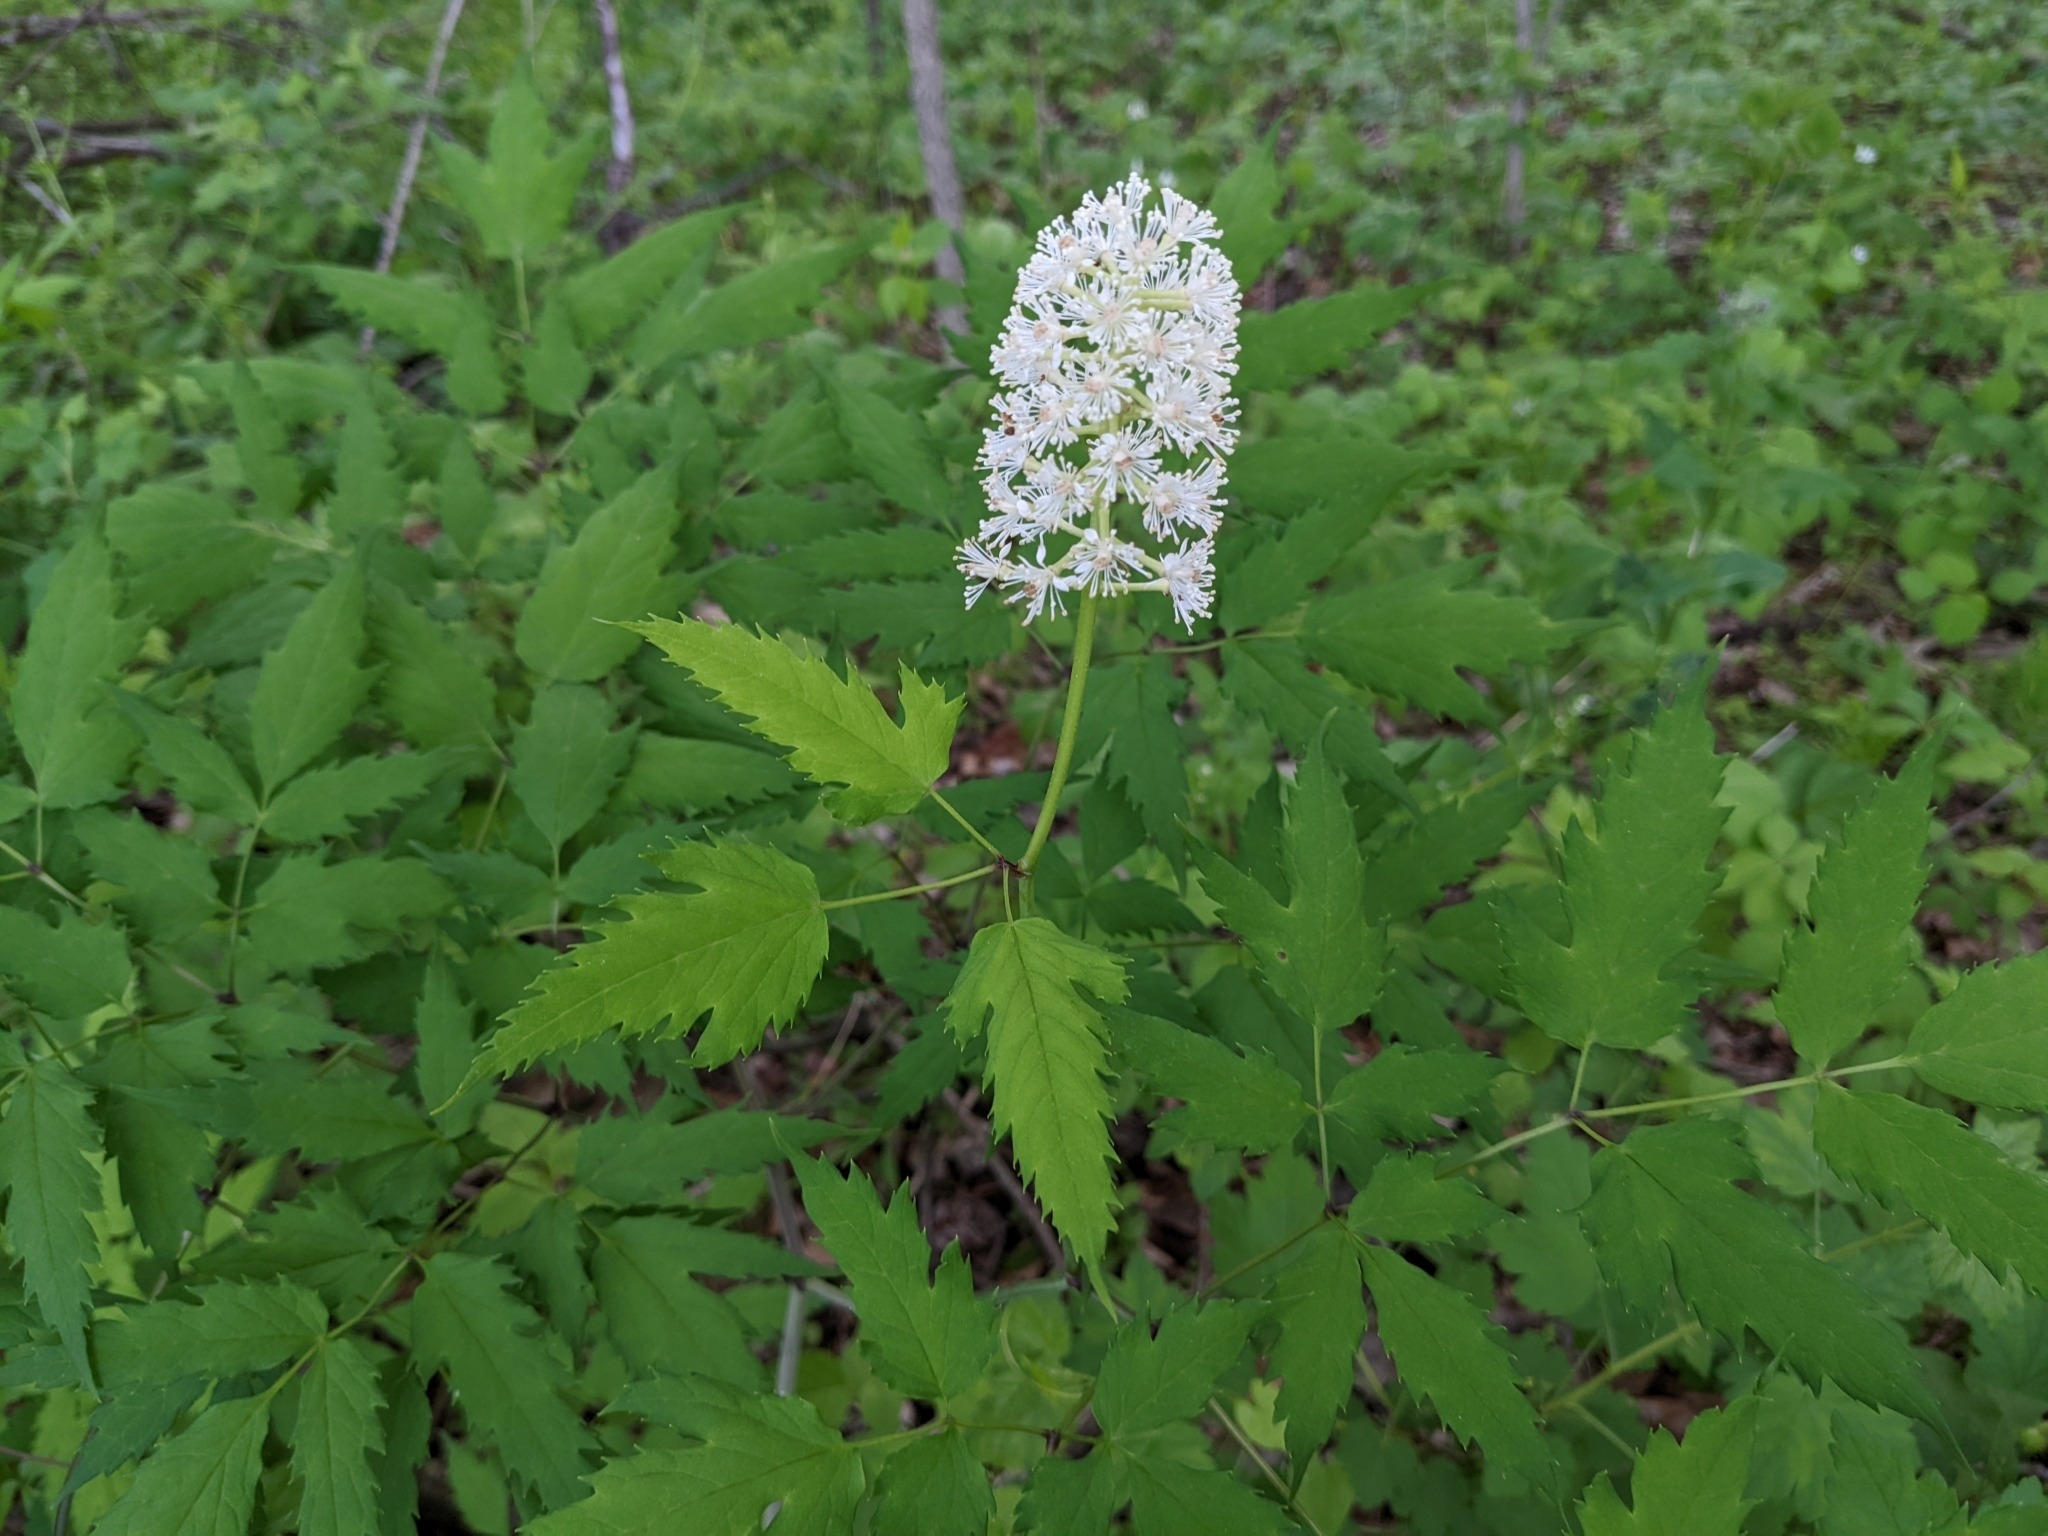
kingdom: Plantae
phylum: Tracheophyta
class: Magnoliopsida
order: Ranunculales
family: Ranunculaceae
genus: Actaea
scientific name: Actaea pachypoda
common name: Doll's-eyes
